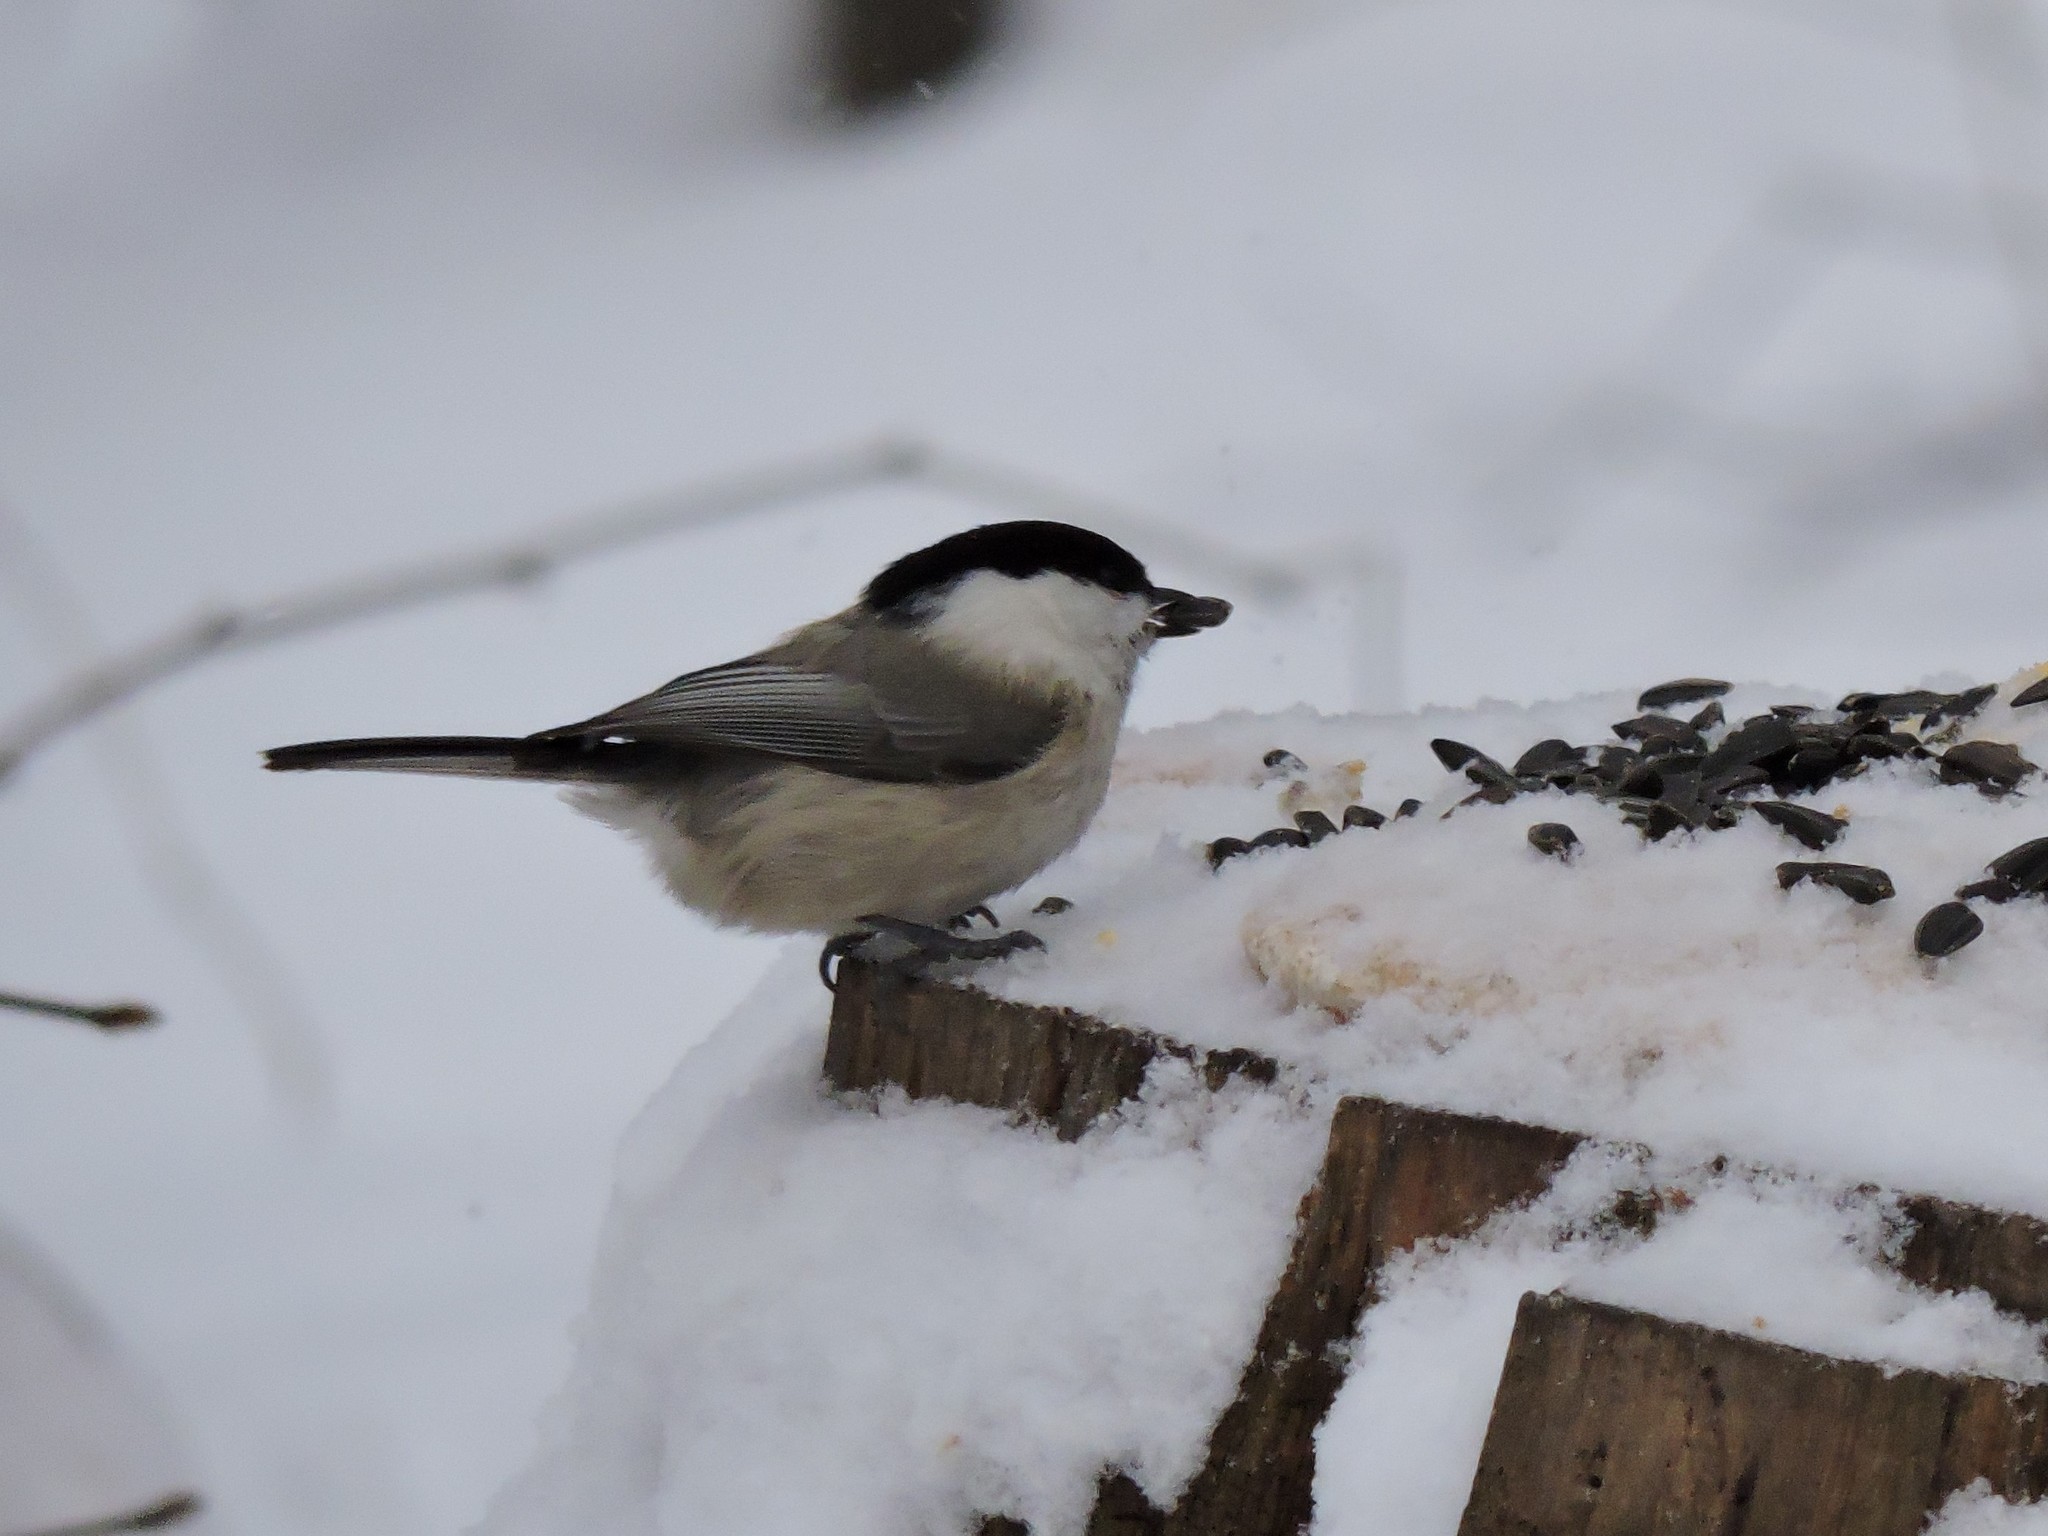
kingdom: Animalia
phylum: Chordata
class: Aves
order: Passeriformes
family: Paridae
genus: Poecile
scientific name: Poecile montanus
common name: Willow tit
